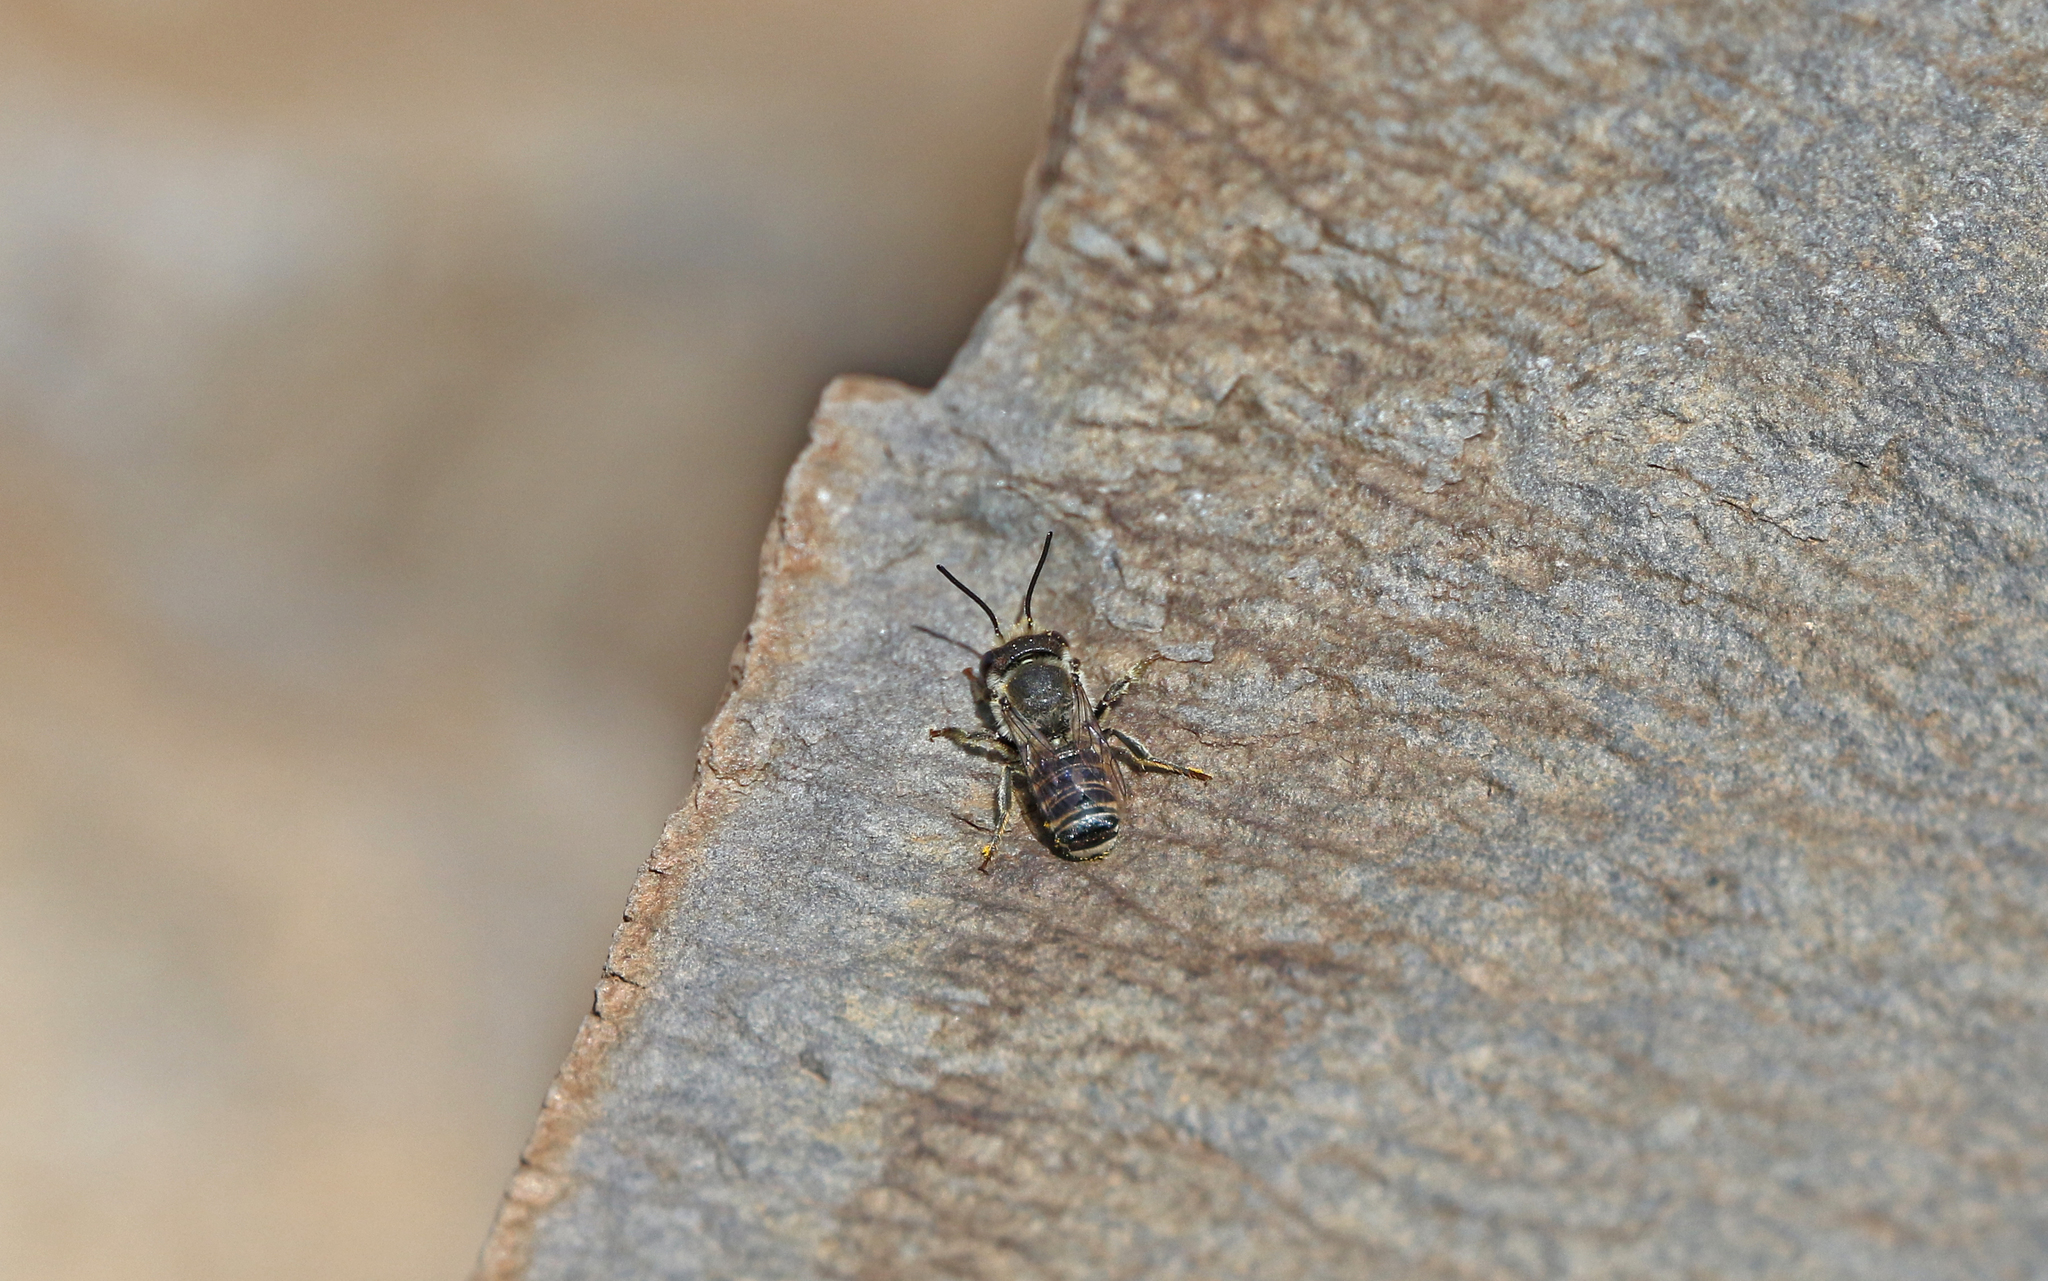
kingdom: Animalia
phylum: Arthropoda
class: Insecta
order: Hymenoptera
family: Megachilidae
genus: Megachile
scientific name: Megachile canariensis
